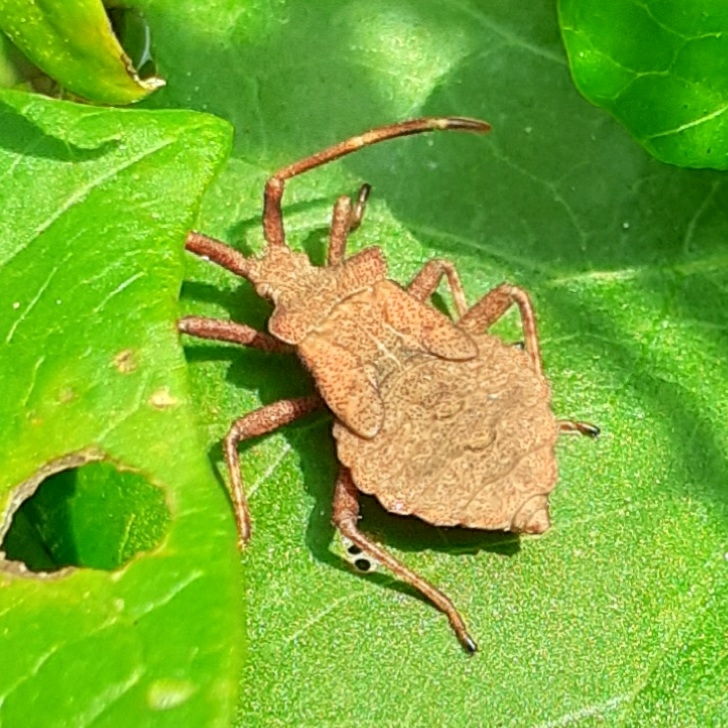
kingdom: Animalia
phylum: Arthropoda
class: Insecta
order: Hemiptera
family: Coreidae
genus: Coreus
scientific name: Coreus marginatus
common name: Dock bug
